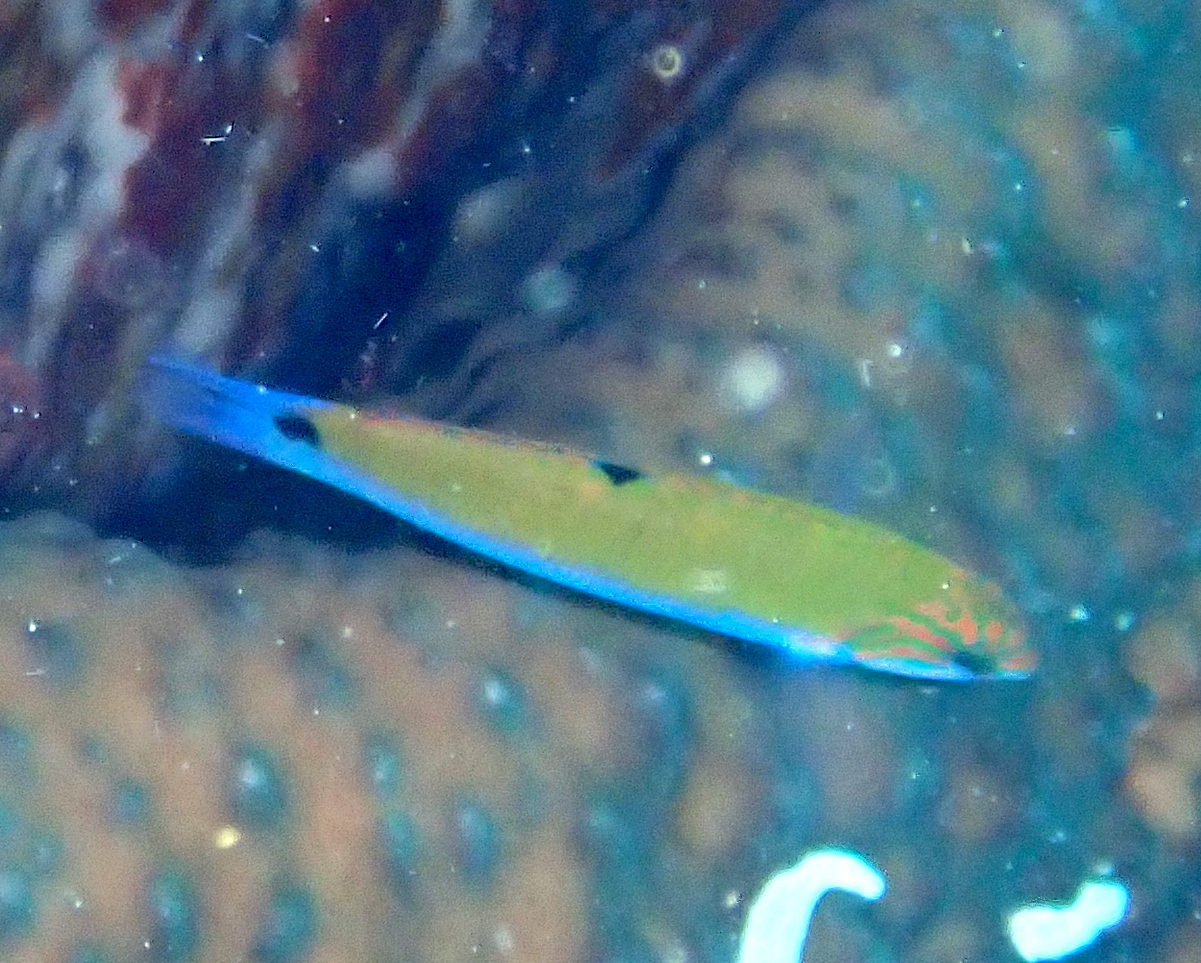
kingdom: Animalia
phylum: Chordata
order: Perciformes
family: Labridae
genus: Thalassoma
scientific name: Thalassoma lunare
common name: Blue wrasse
